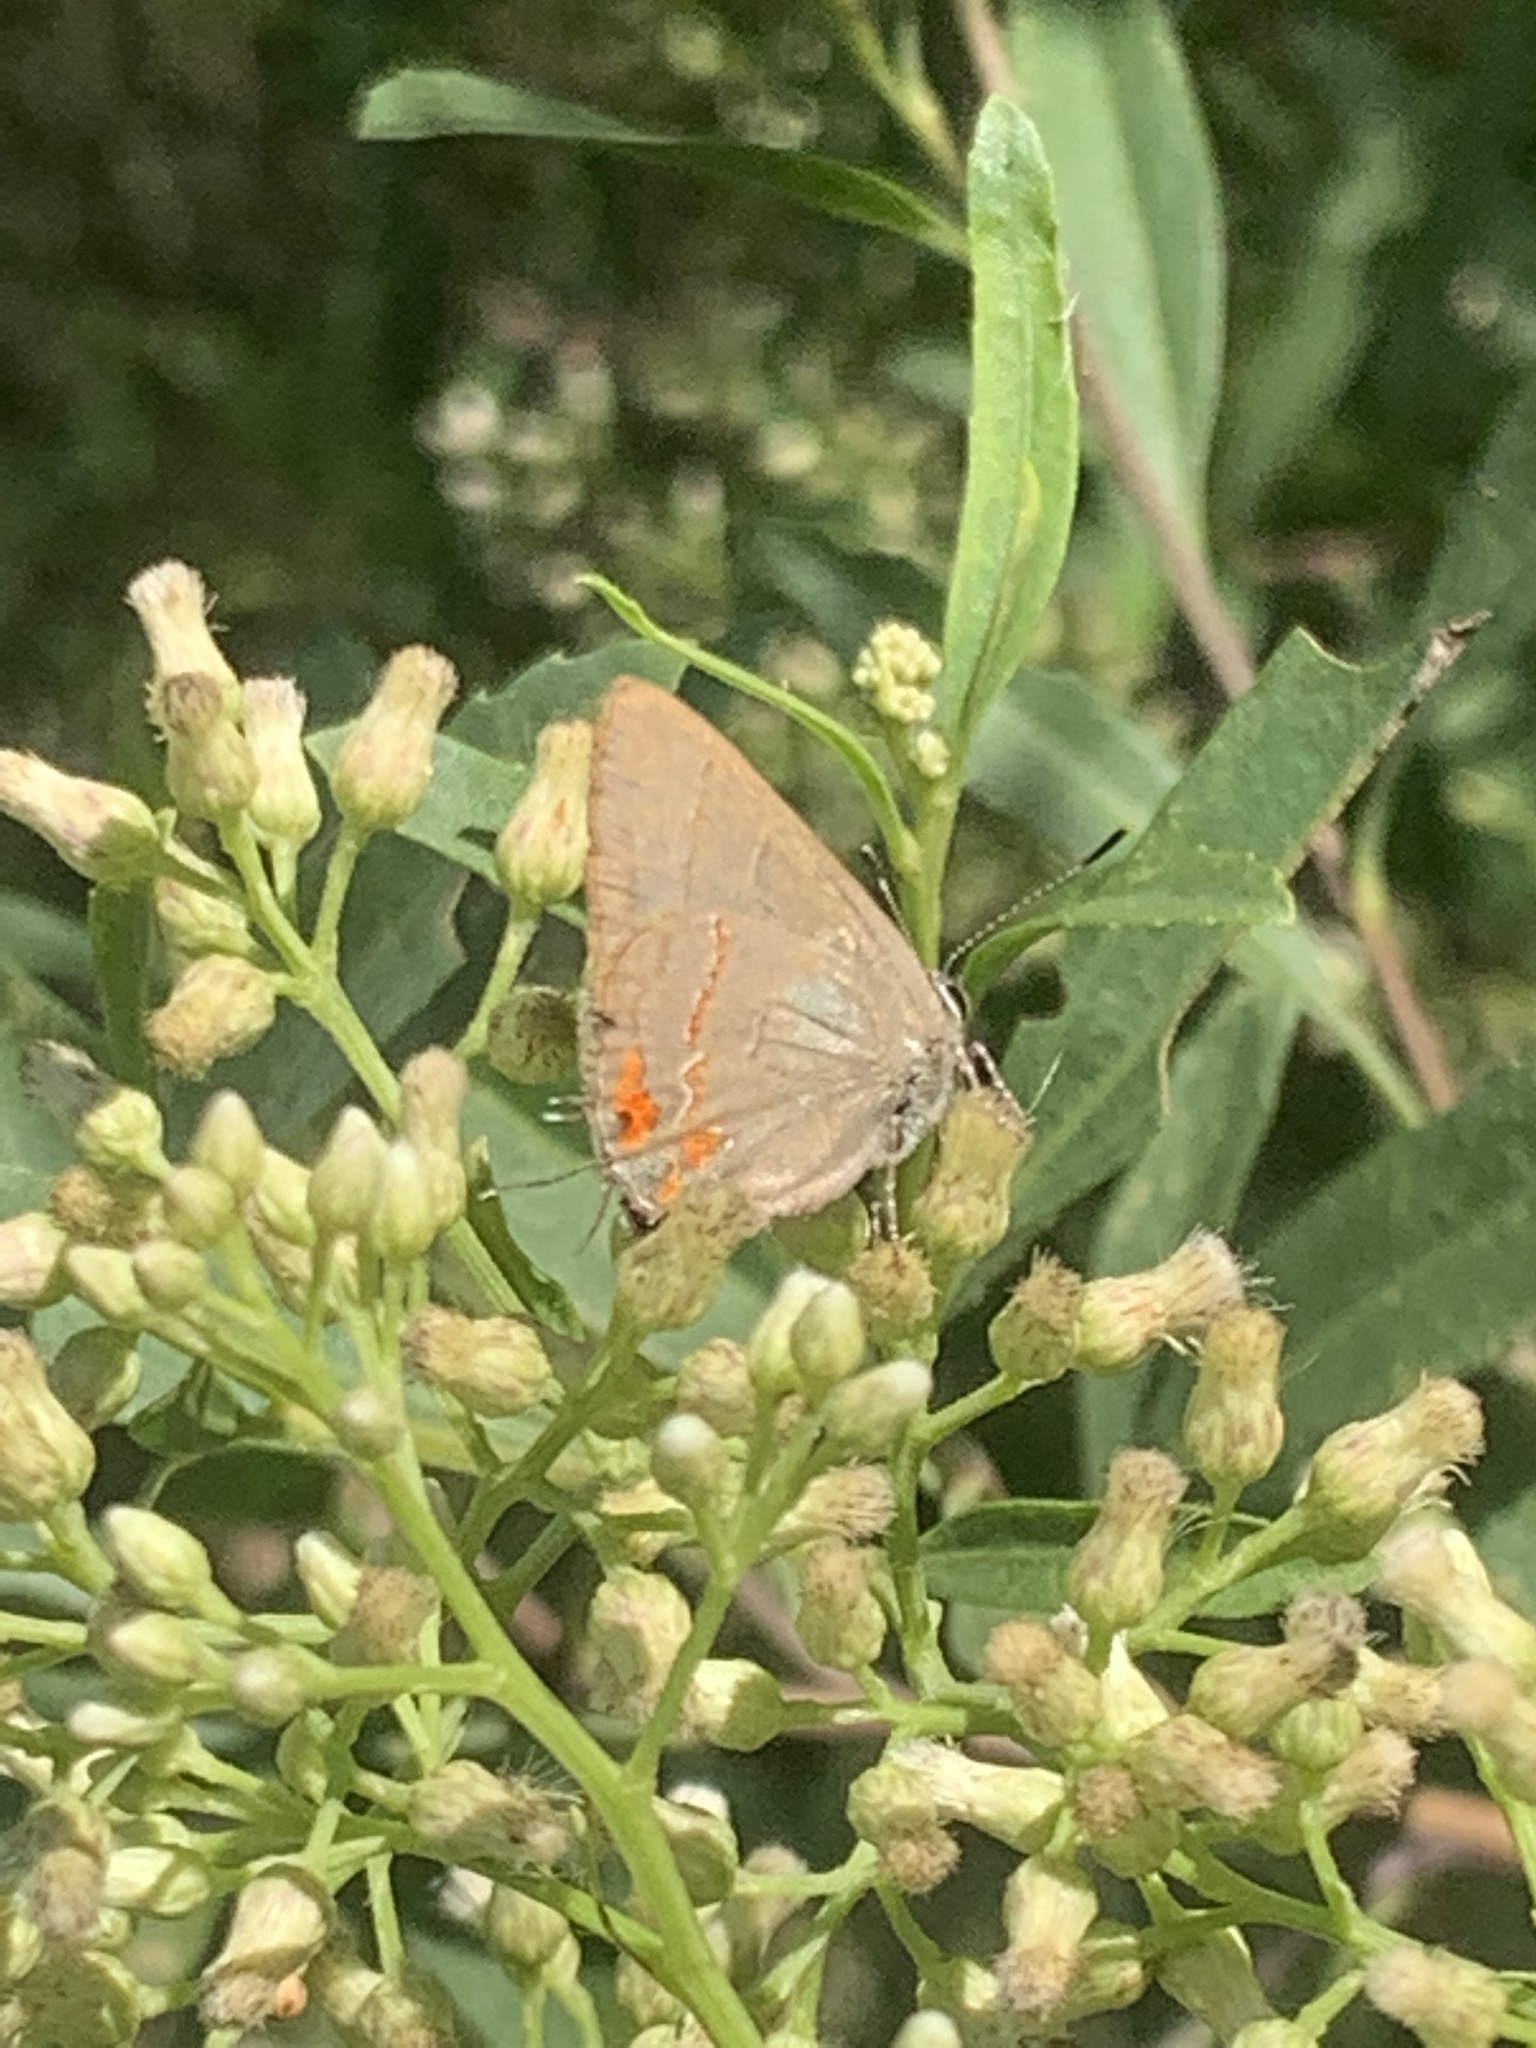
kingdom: Animalia
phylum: Arthropoda
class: Insecta
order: Lepidoptera
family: Lycaenidae
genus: Calycopis
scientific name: Calycopis caulonia
